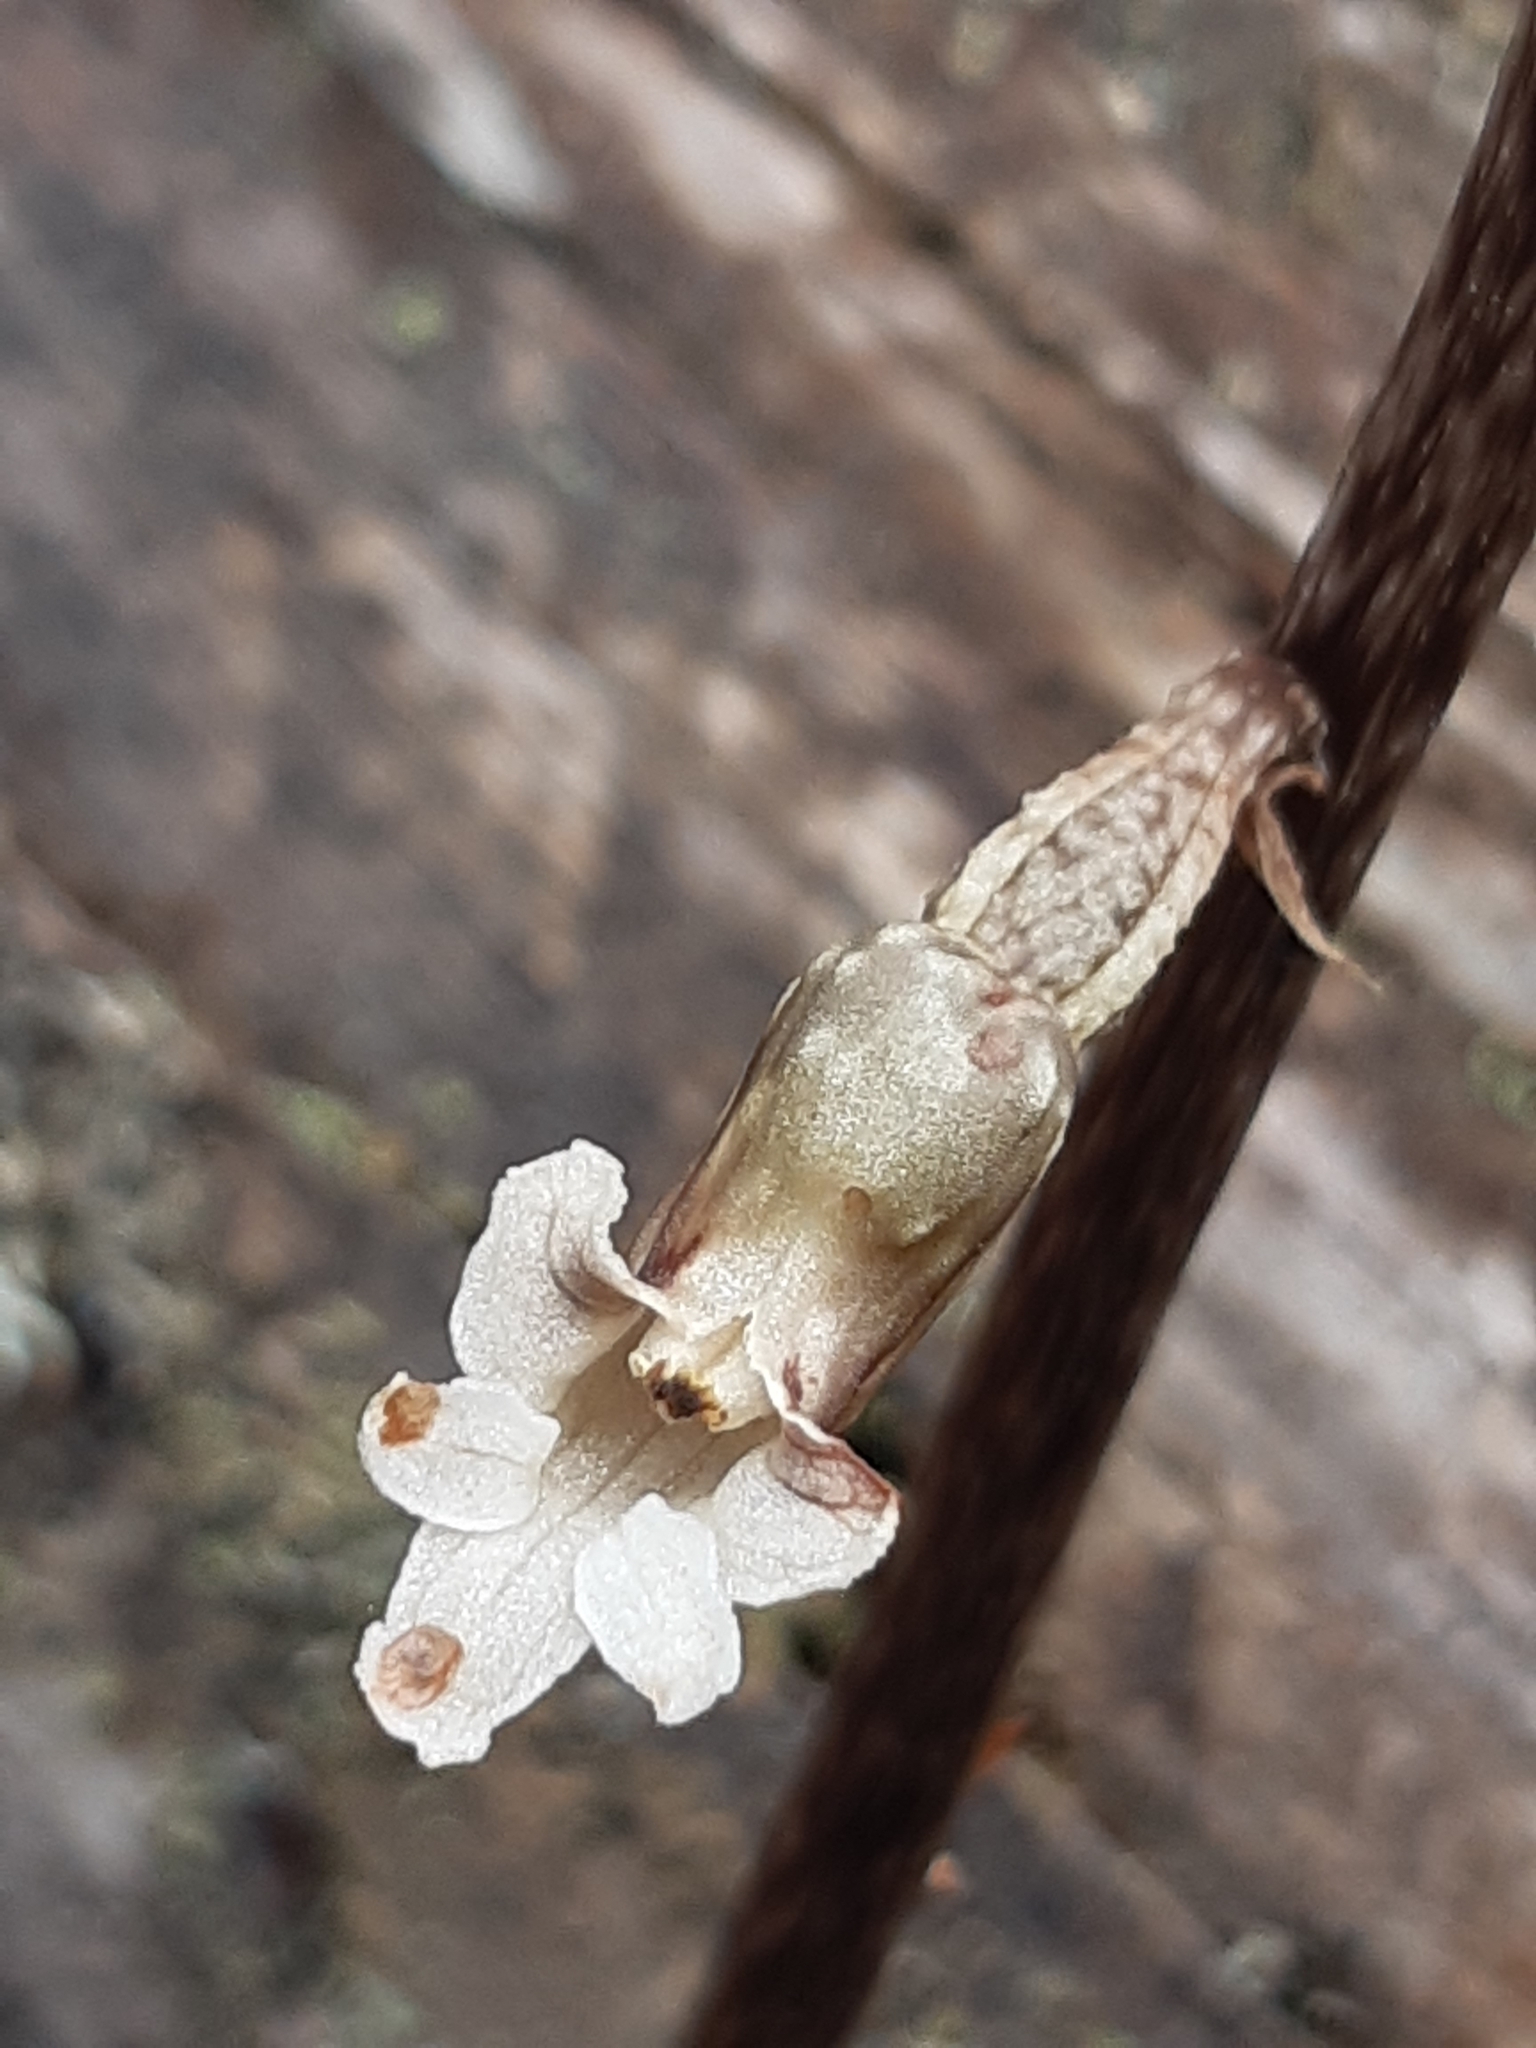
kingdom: Plantae
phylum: Tracheophyta
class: Liliopsida
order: Asparagales
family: Orchidaceae
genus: Gastrodia
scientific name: Gastrodia cunninghamii
